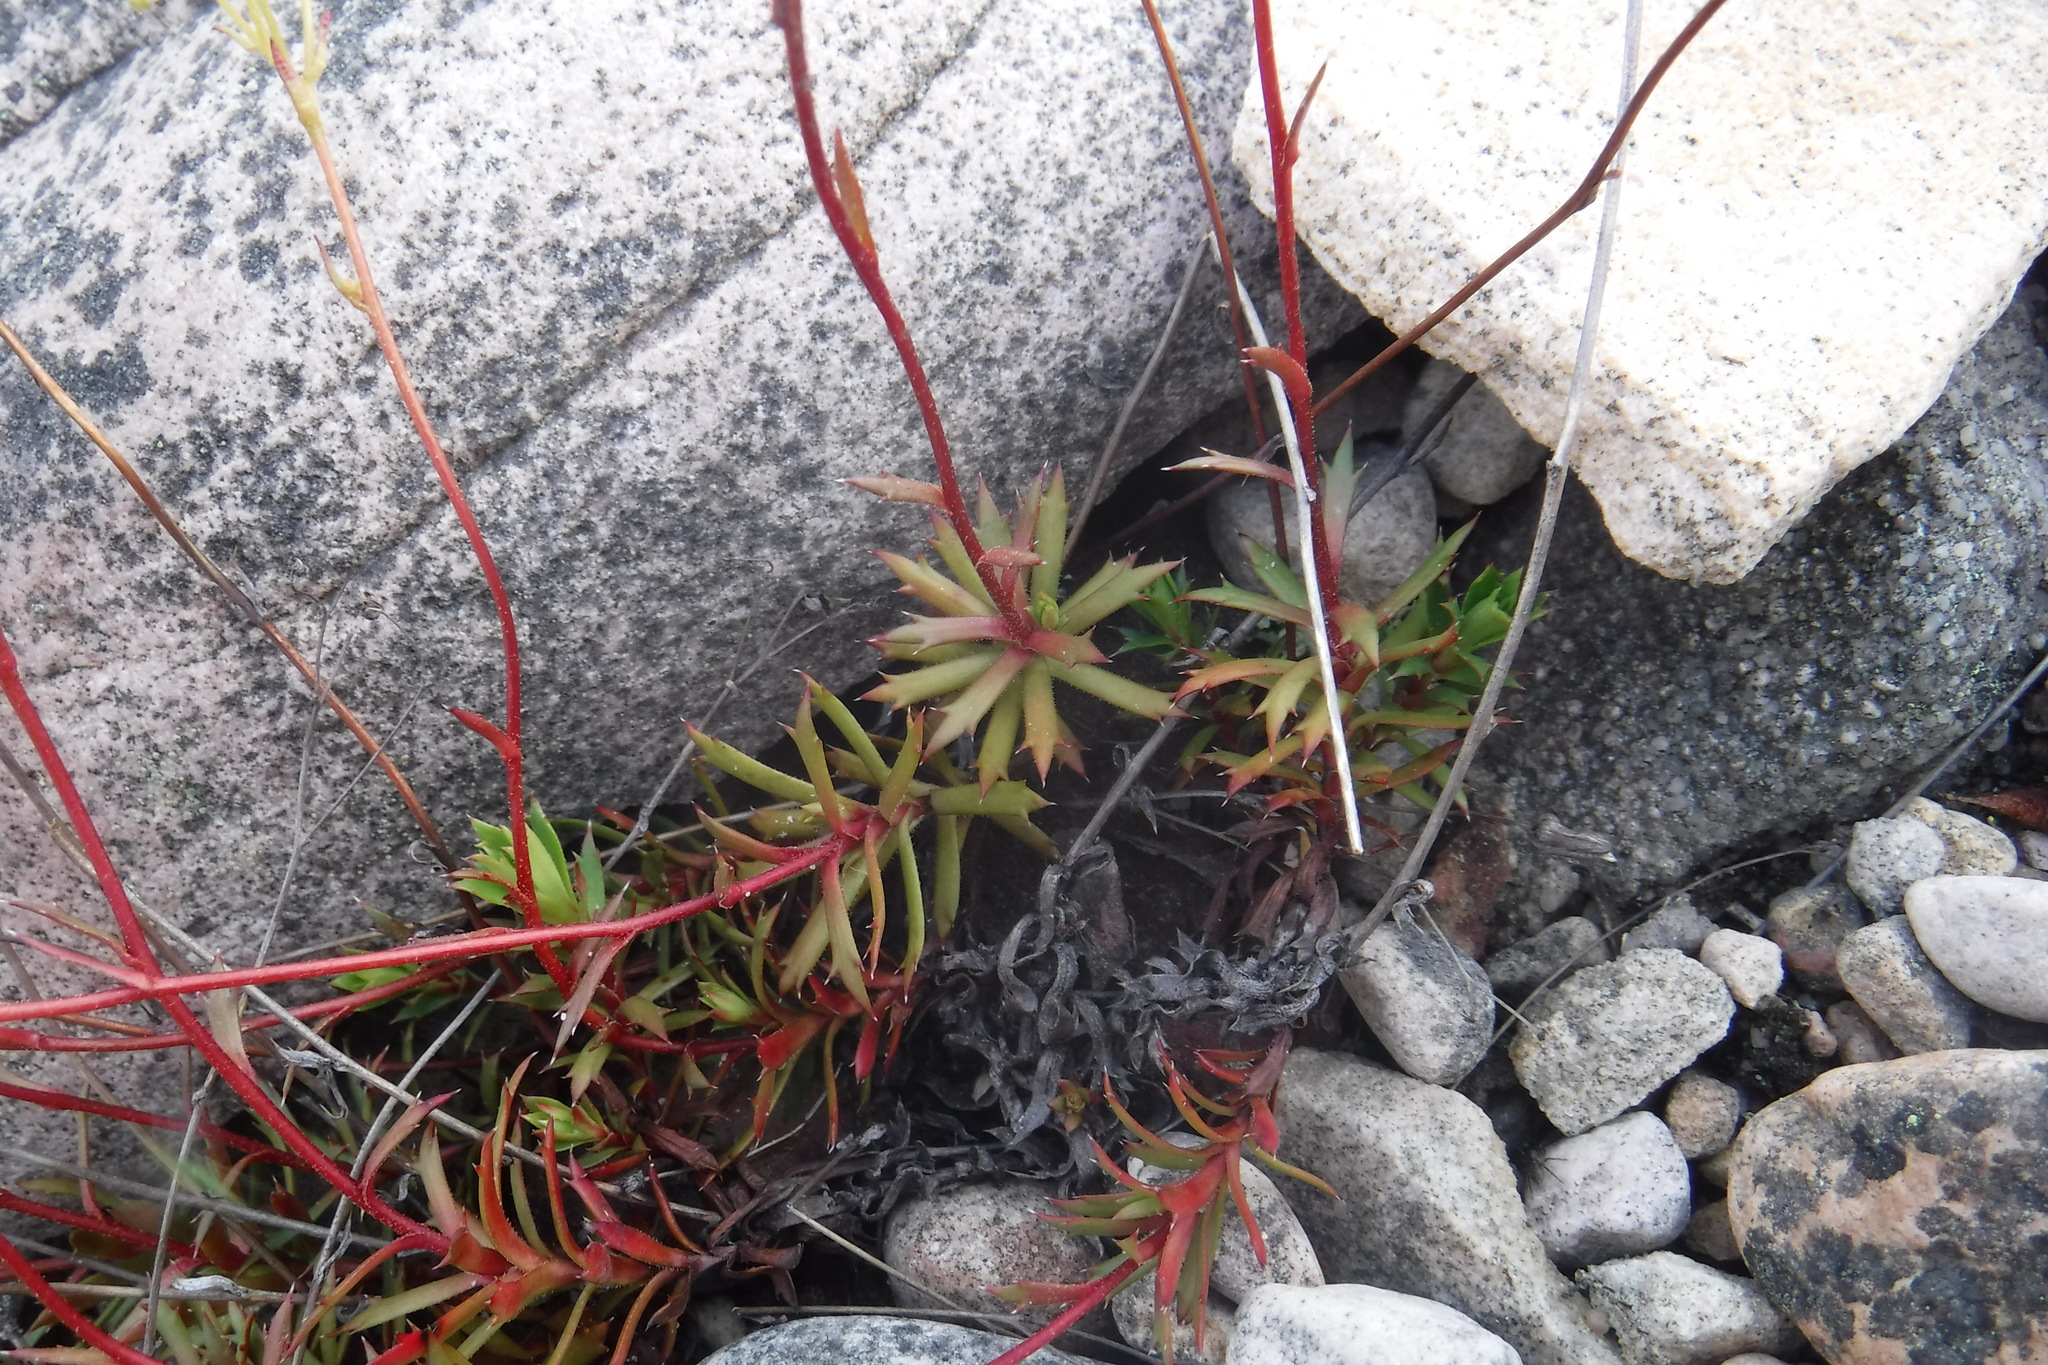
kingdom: Plantae
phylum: Tracheophyta
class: Magnoliopsida
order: Saxifragales
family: Saxifragaceae
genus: Saxifraga
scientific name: Saxifraga tricuspidata
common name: Prickly saxifrage
